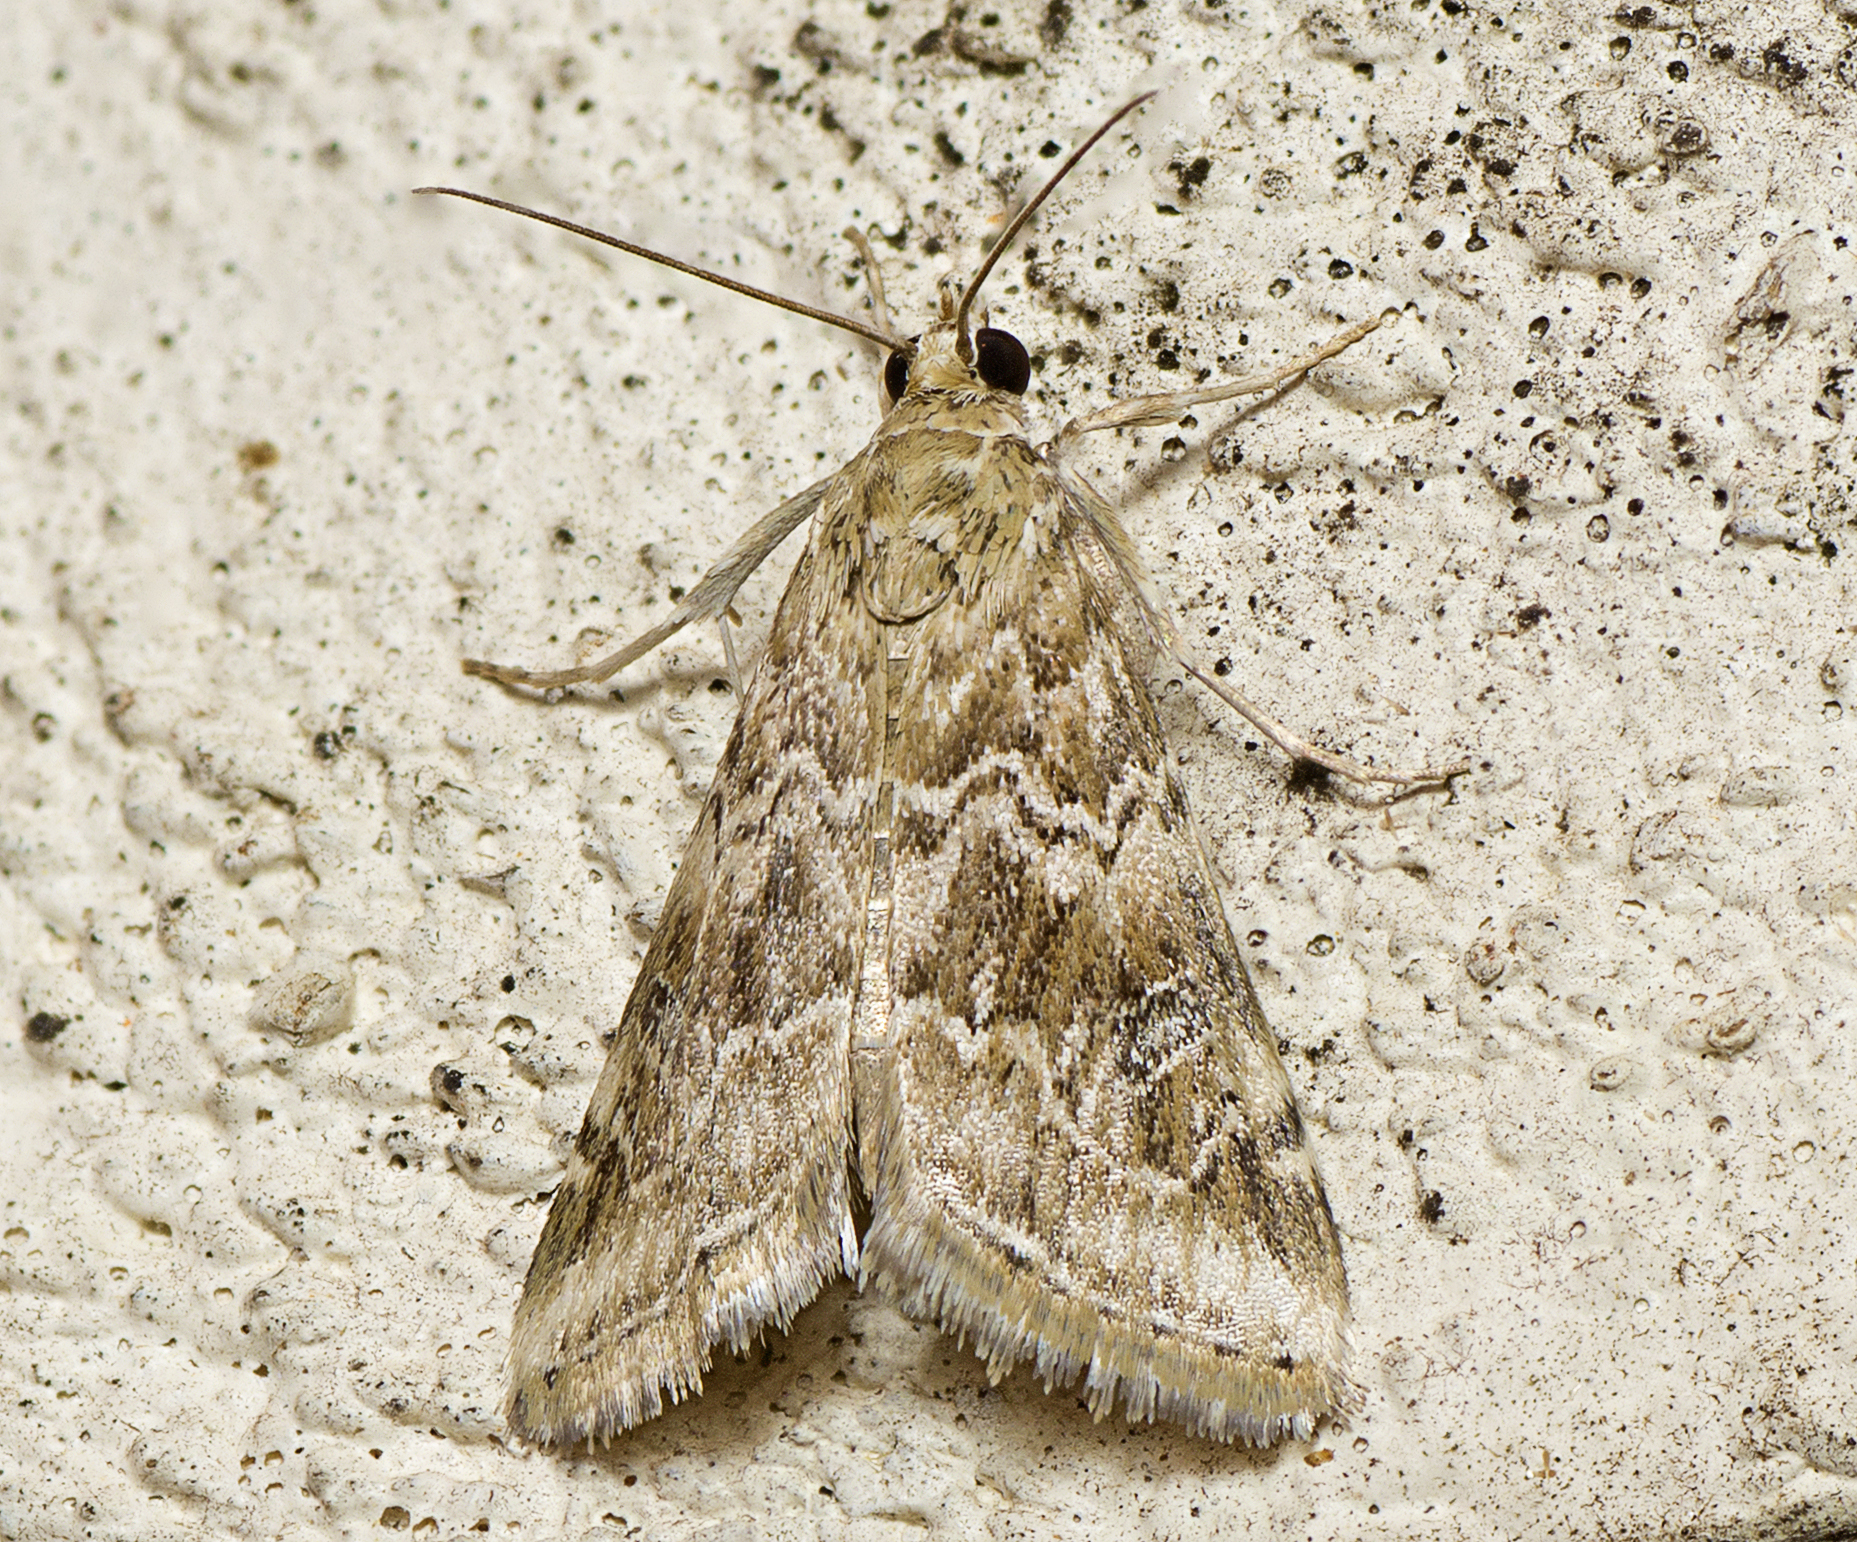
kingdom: Animalia
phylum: Arthropoda
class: Insecta
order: Lepidoptera
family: Crambidae
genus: Hellula
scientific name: Hellula undalis
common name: Cabbage webworm
